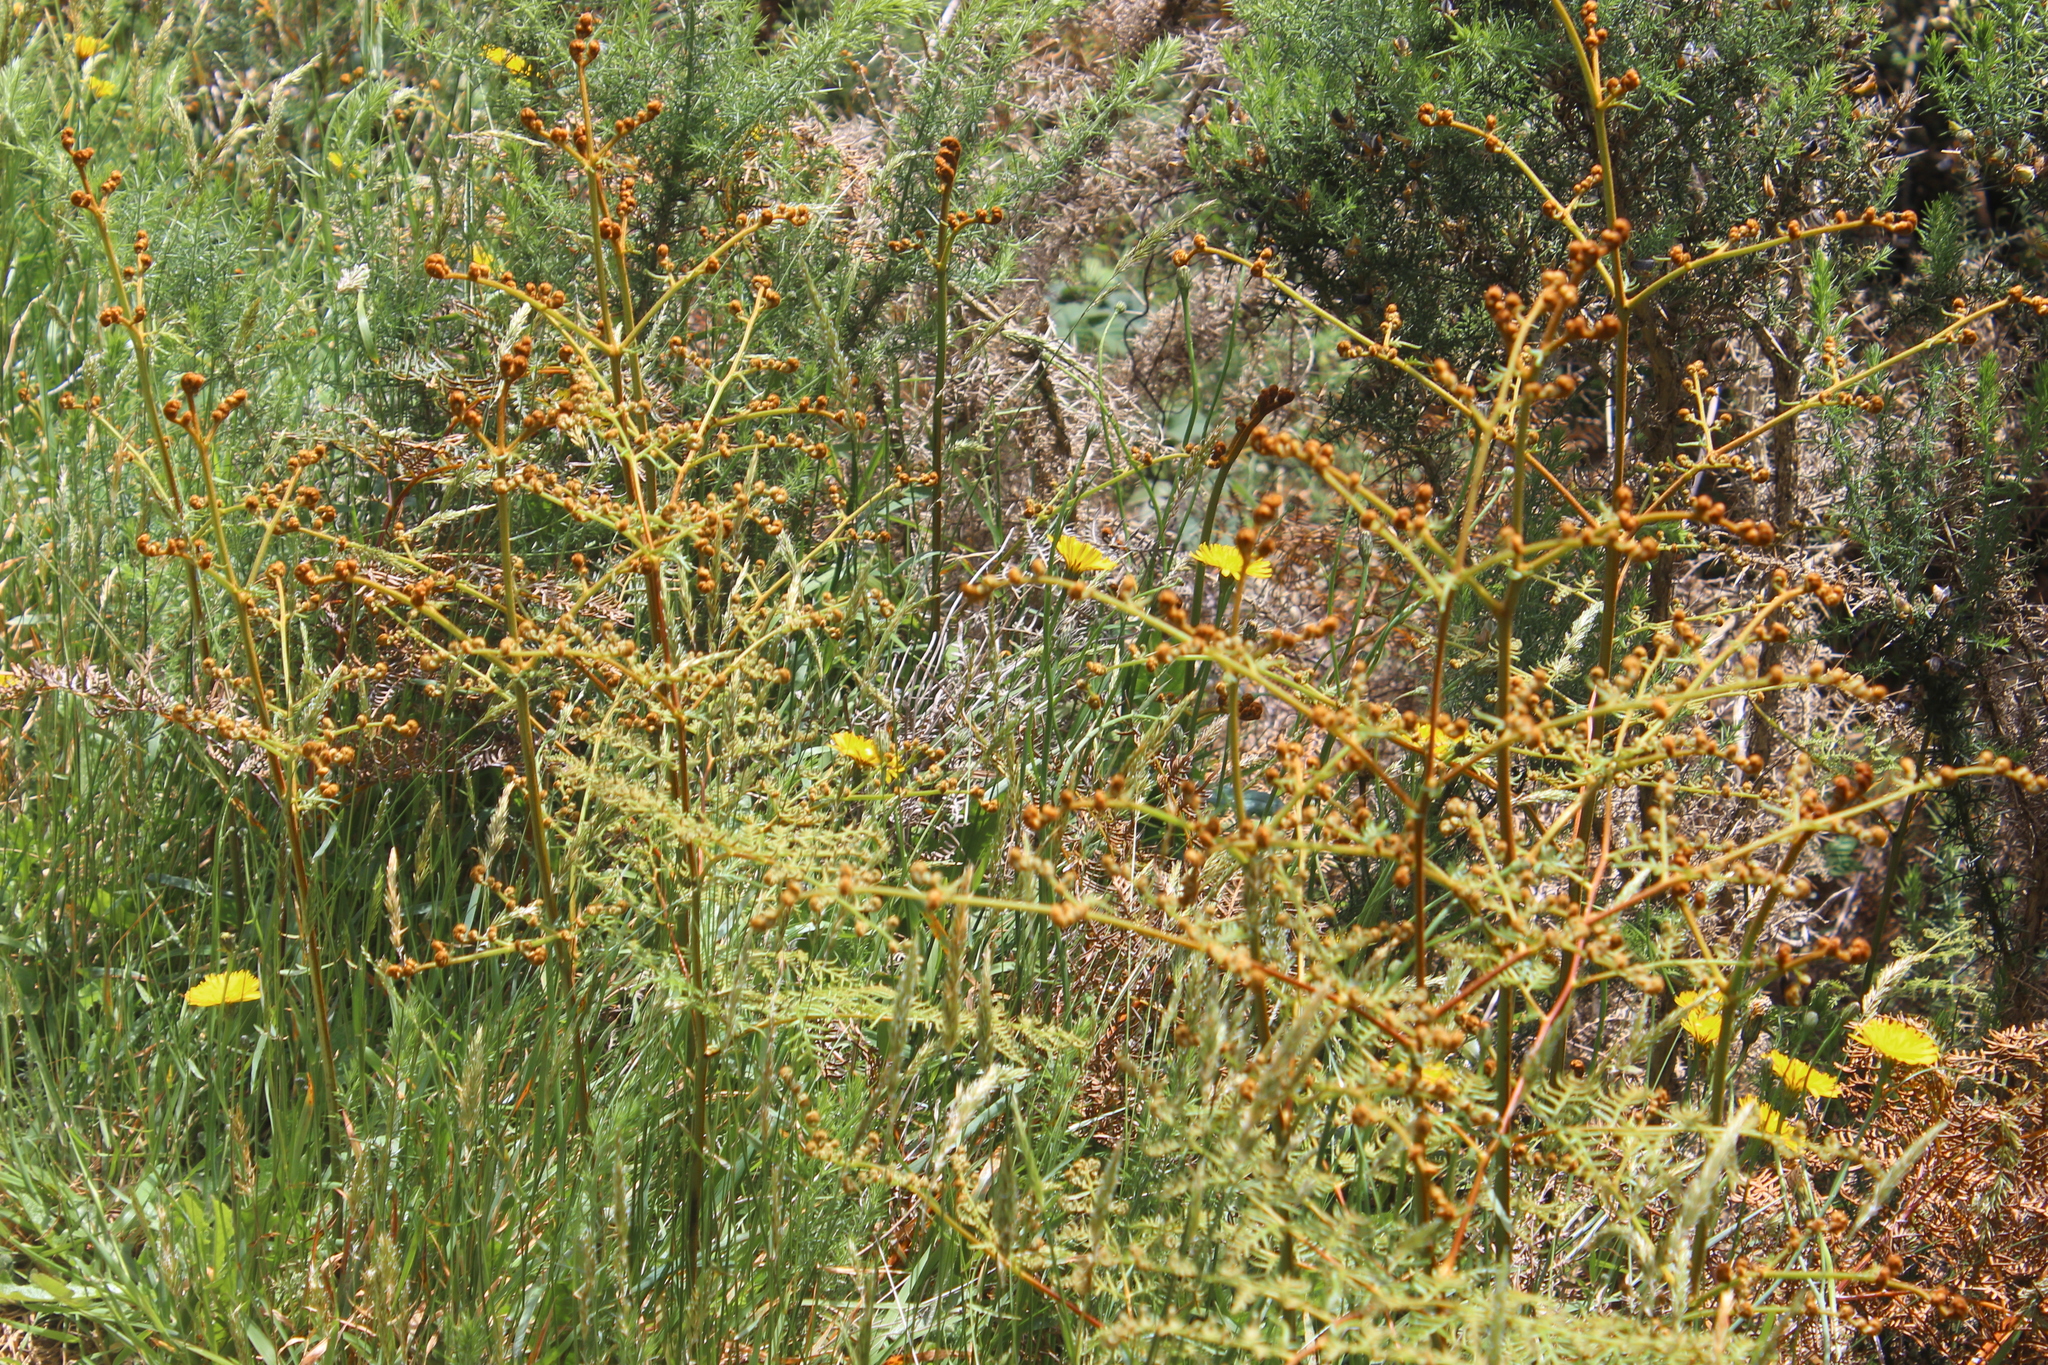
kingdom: Plantae
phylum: Tracheophyta
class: Polypodiopsida
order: Polypodiales
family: Dennstaedtiaceae
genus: Pteridium
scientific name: Pteridium esculentum
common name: Bracken fern
